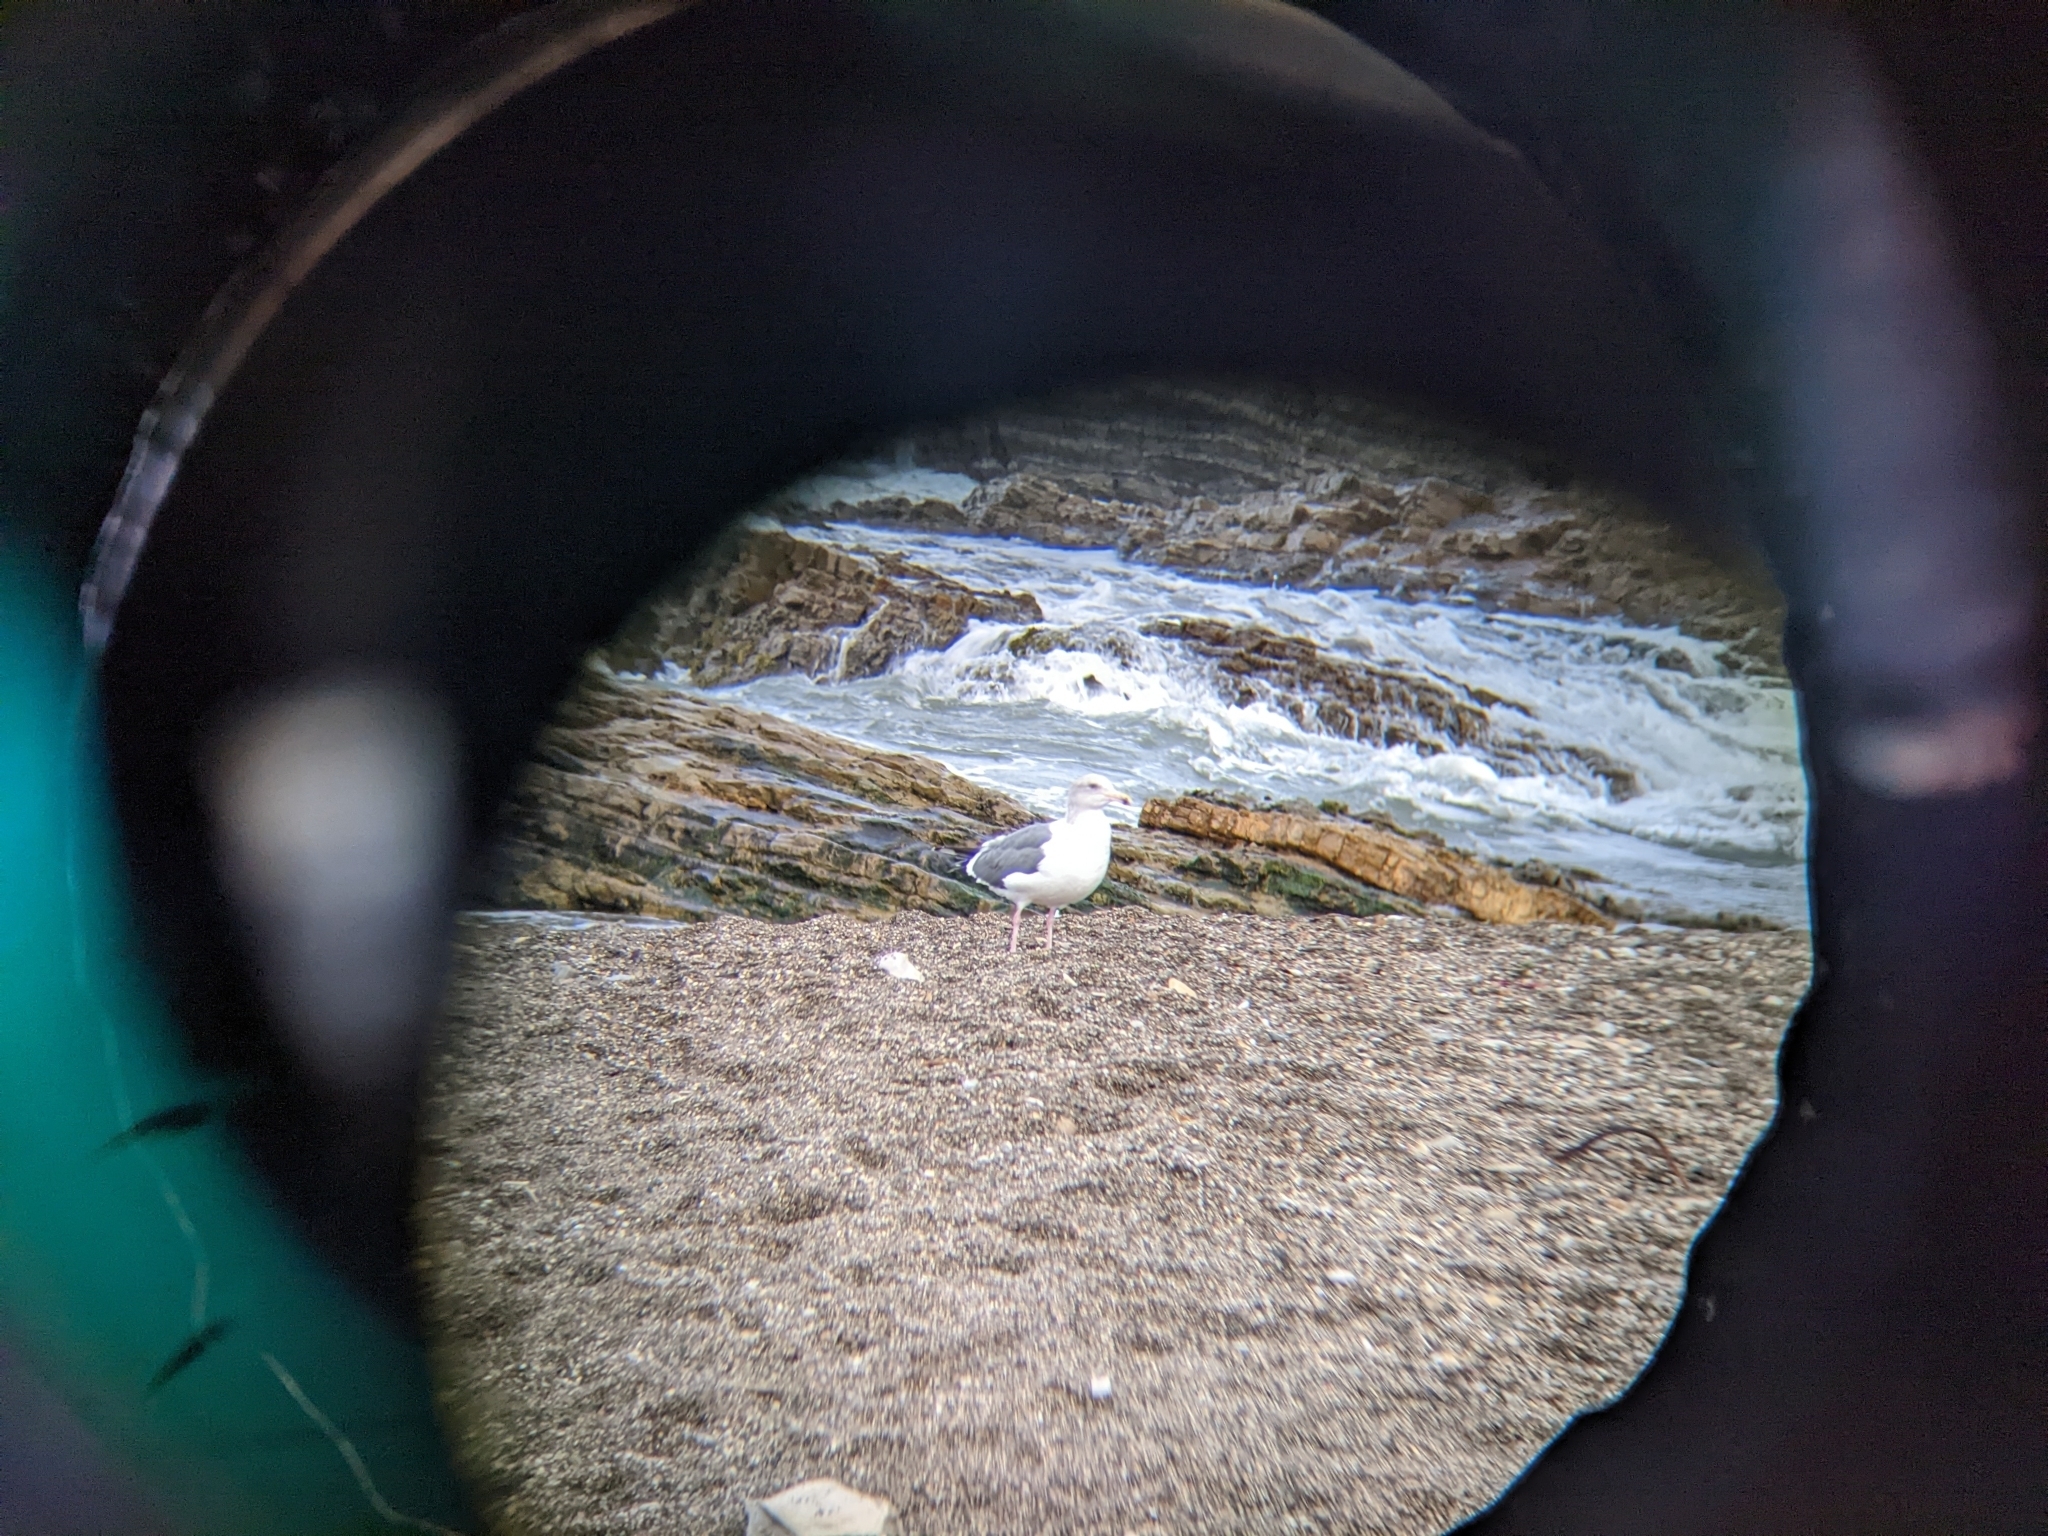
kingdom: Animalia
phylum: Chordata
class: Aves
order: Charadriiformes
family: Laridae
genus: Larus
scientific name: Larus occidentalis
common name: Western gull
